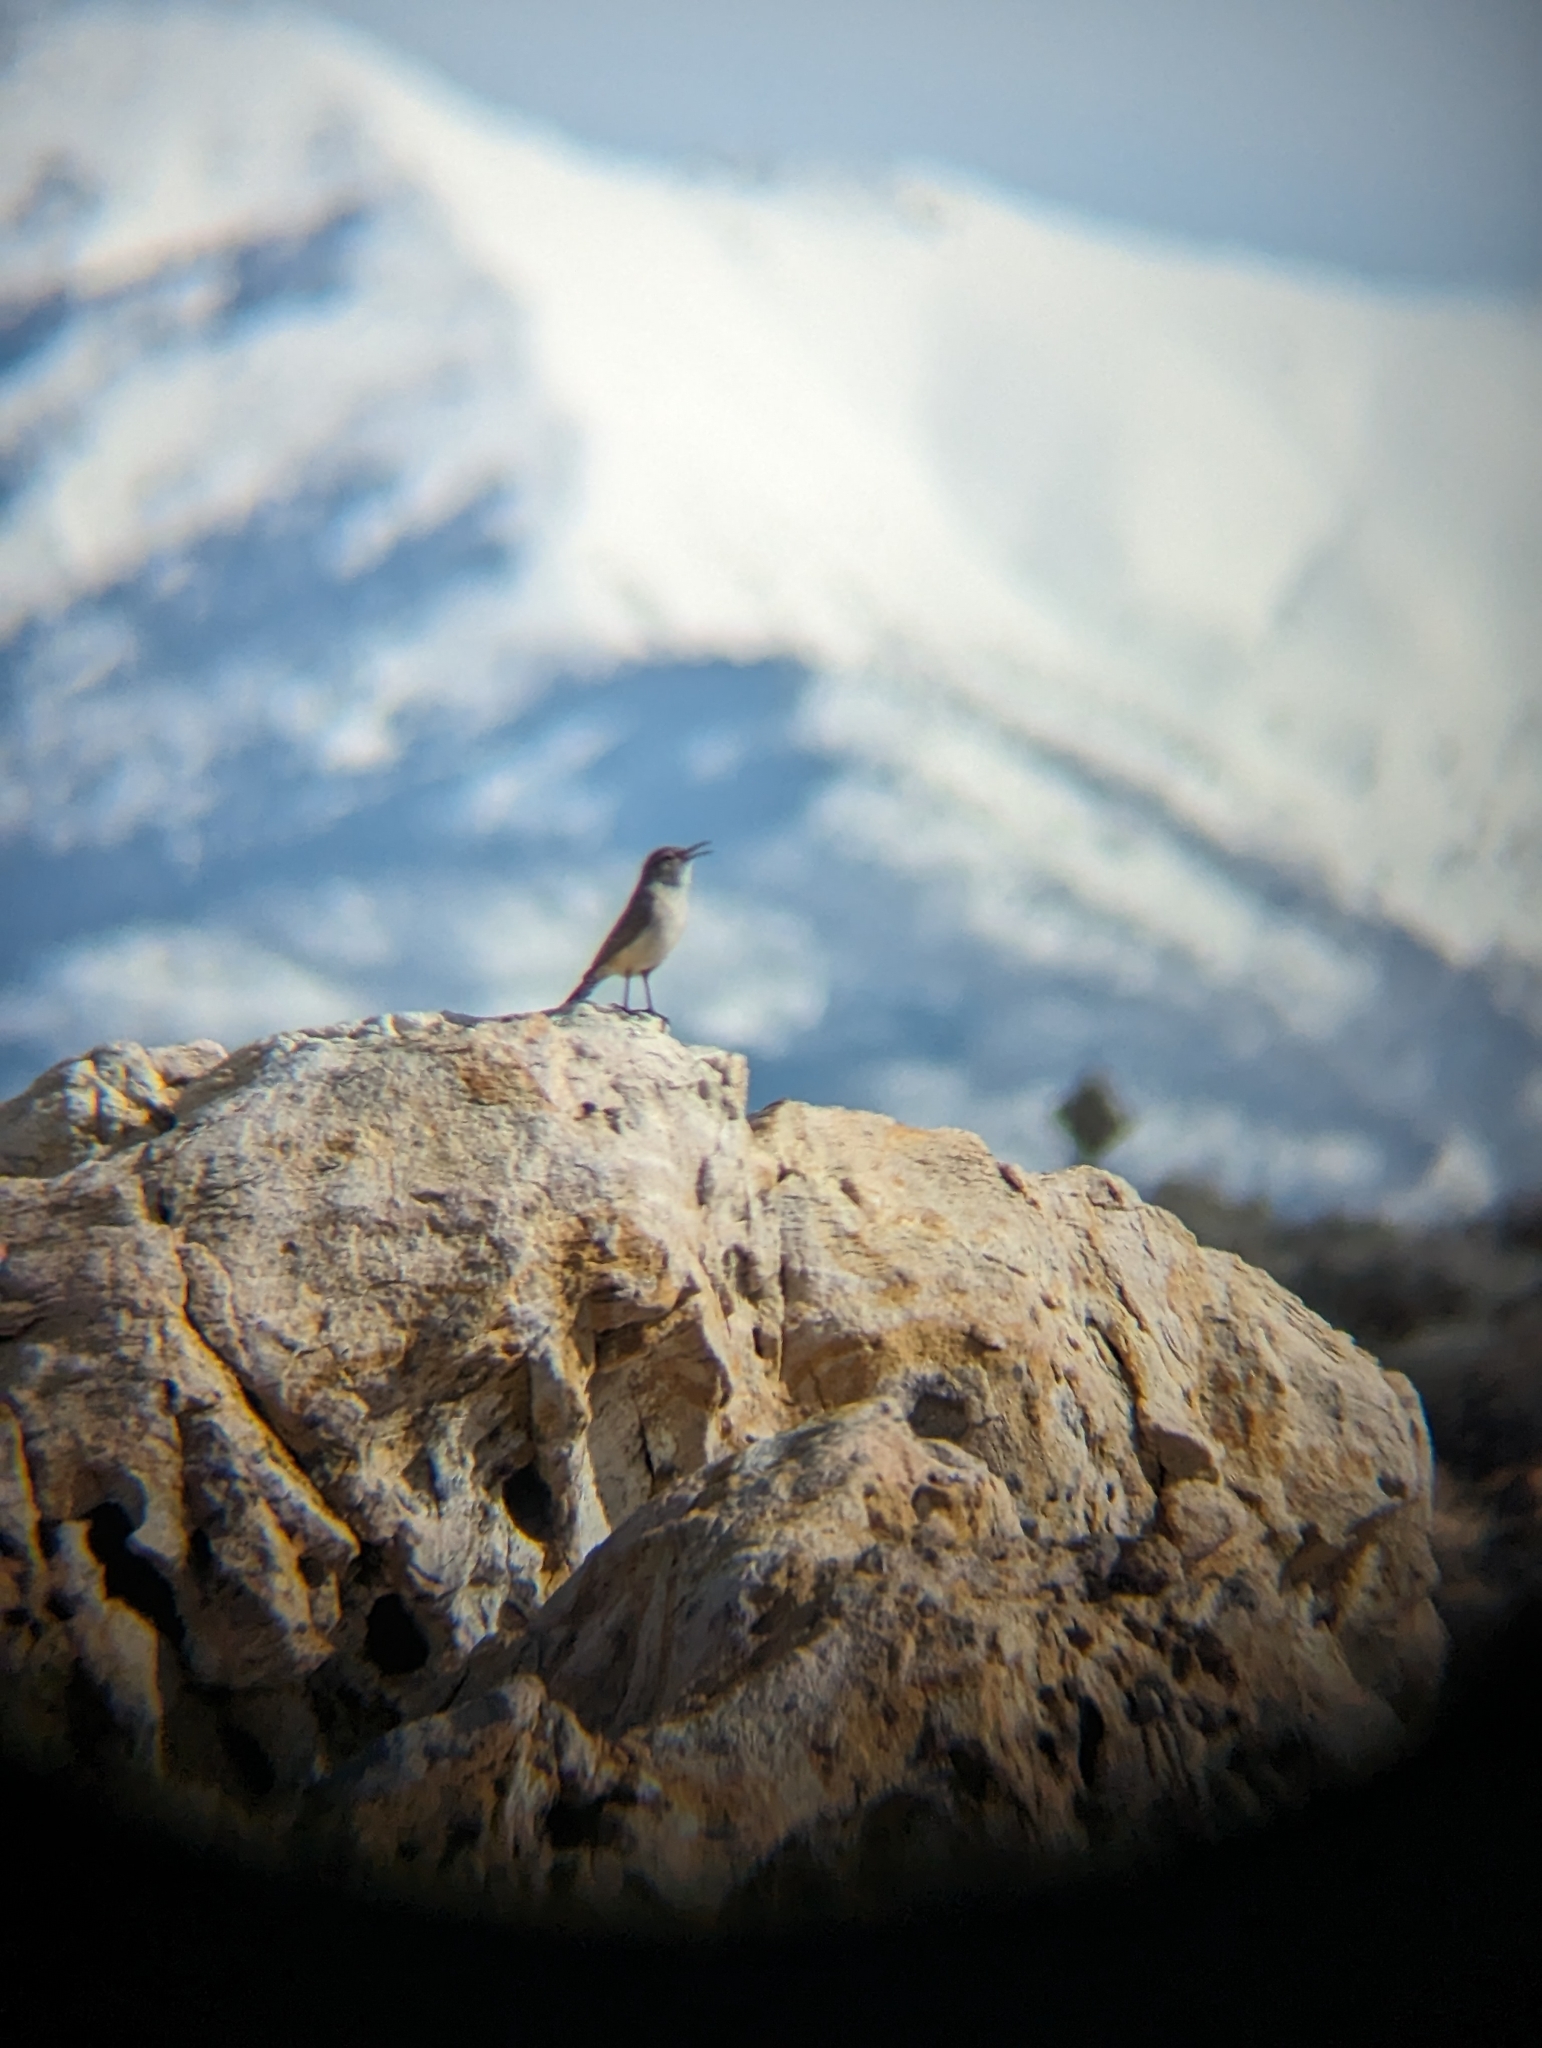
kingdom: Animalia
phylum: Chordata
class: Aves
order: Passeriformes
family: Troglodytidae
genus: Salpinctes
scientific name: Salpinctes obsoletus
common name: Rock wren
